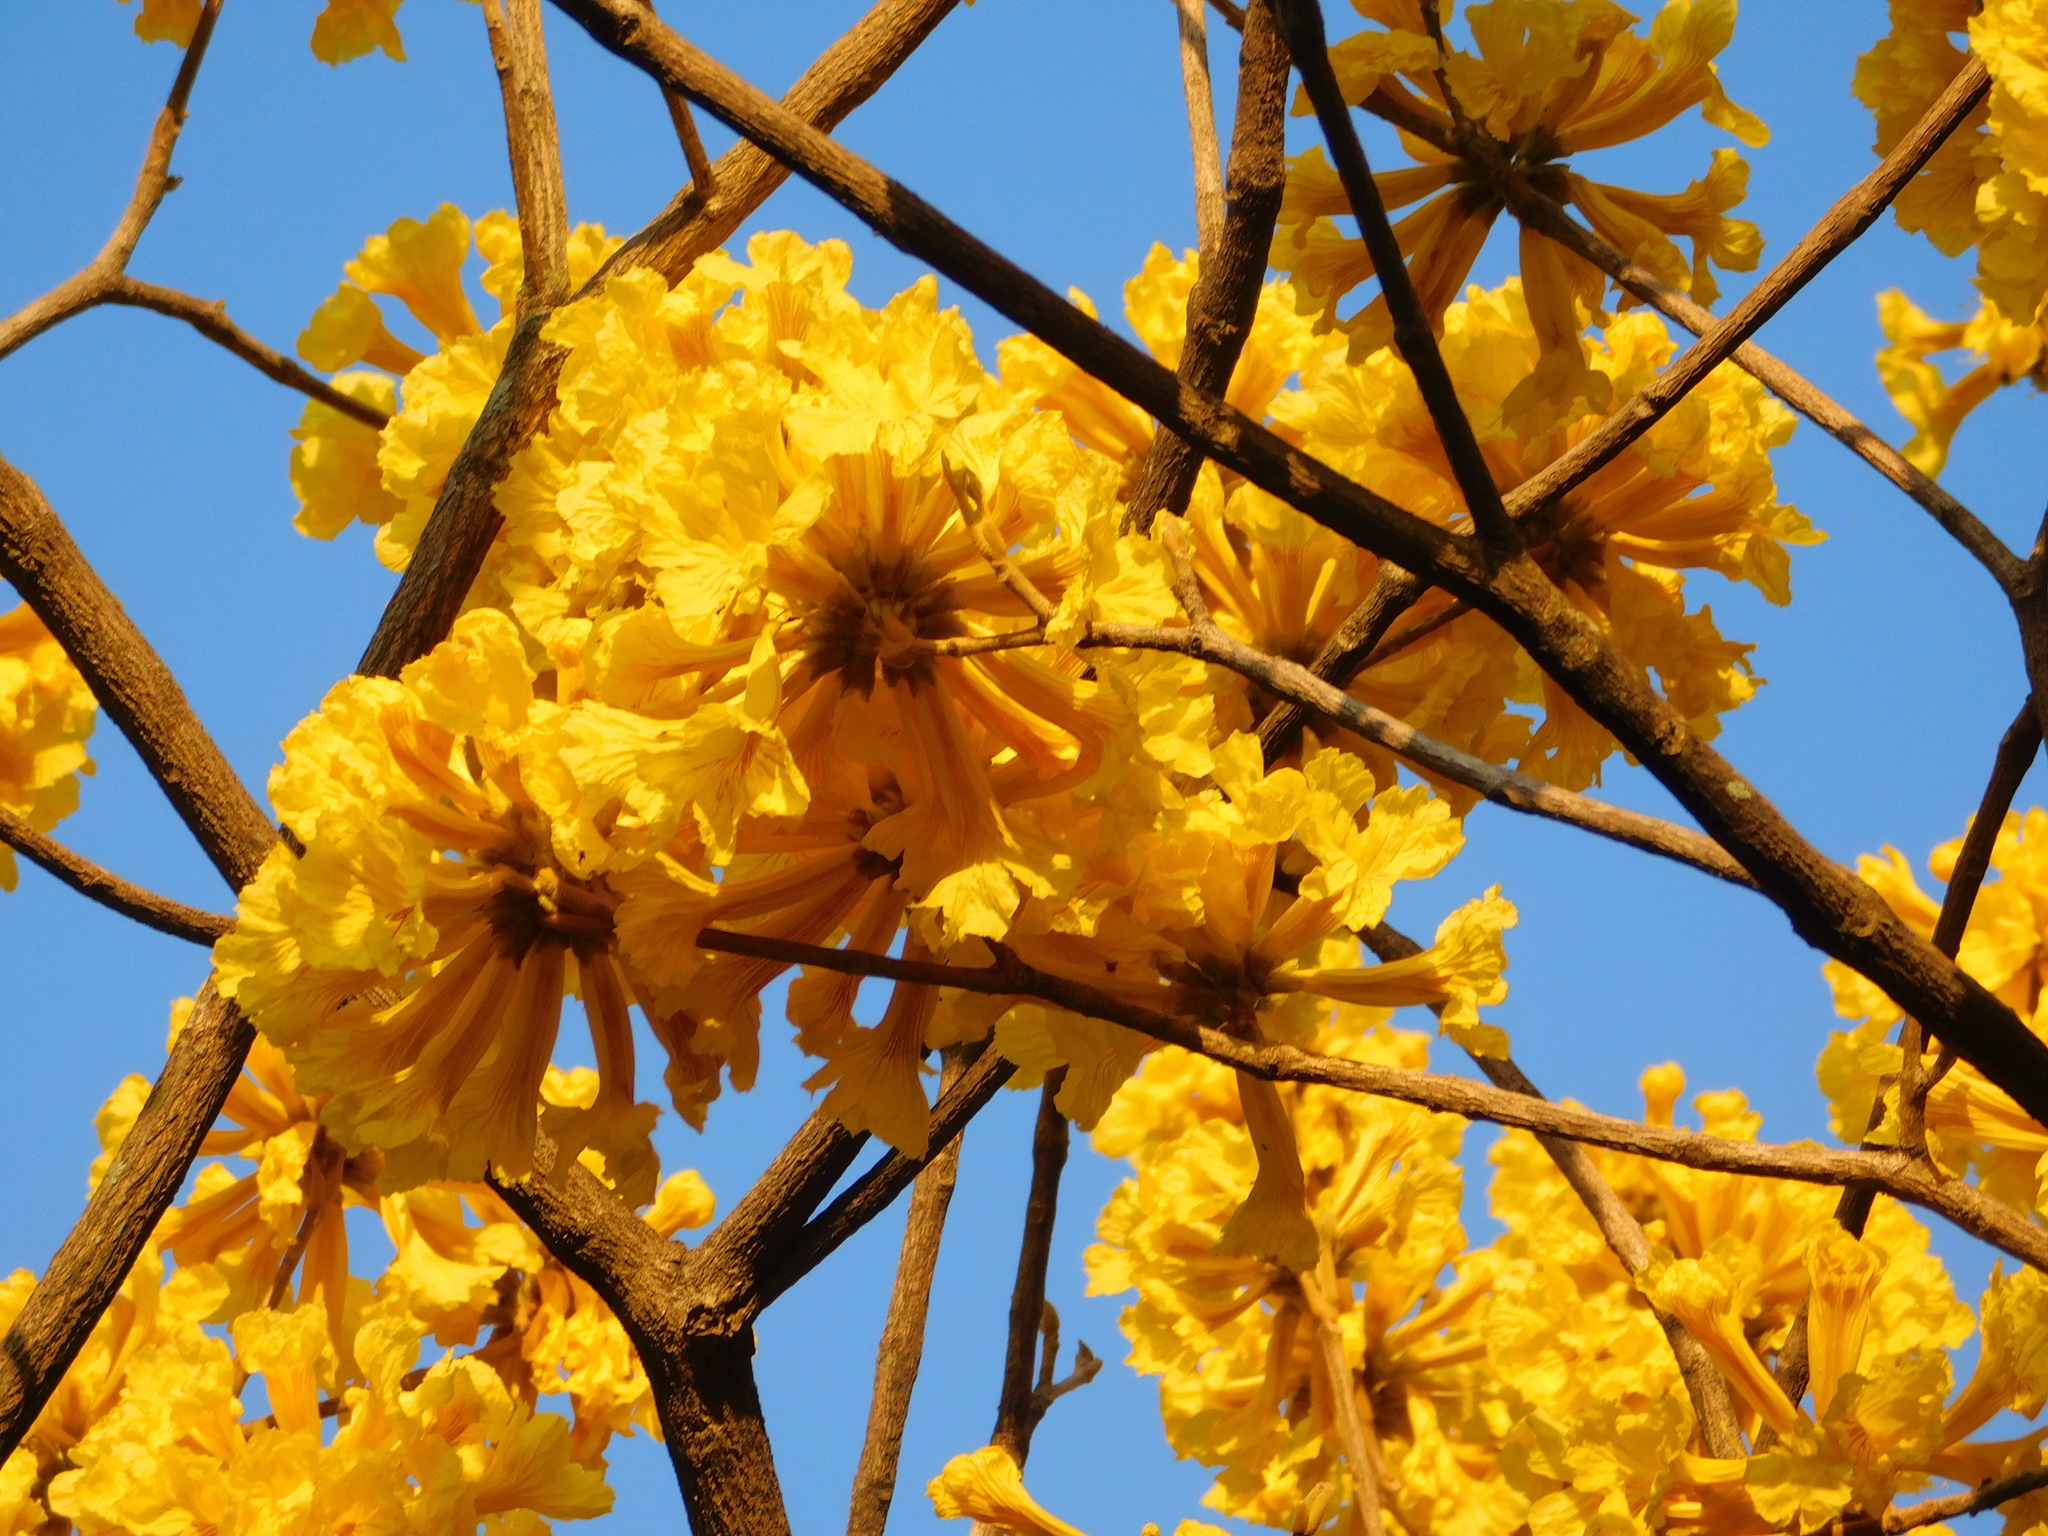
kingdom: Plantae
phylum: Tracheophyta
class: Magnoliopsida
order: Lamiales
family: Bignoniaceae
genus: Handroanthus
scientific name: Handroanthus ochraceus
